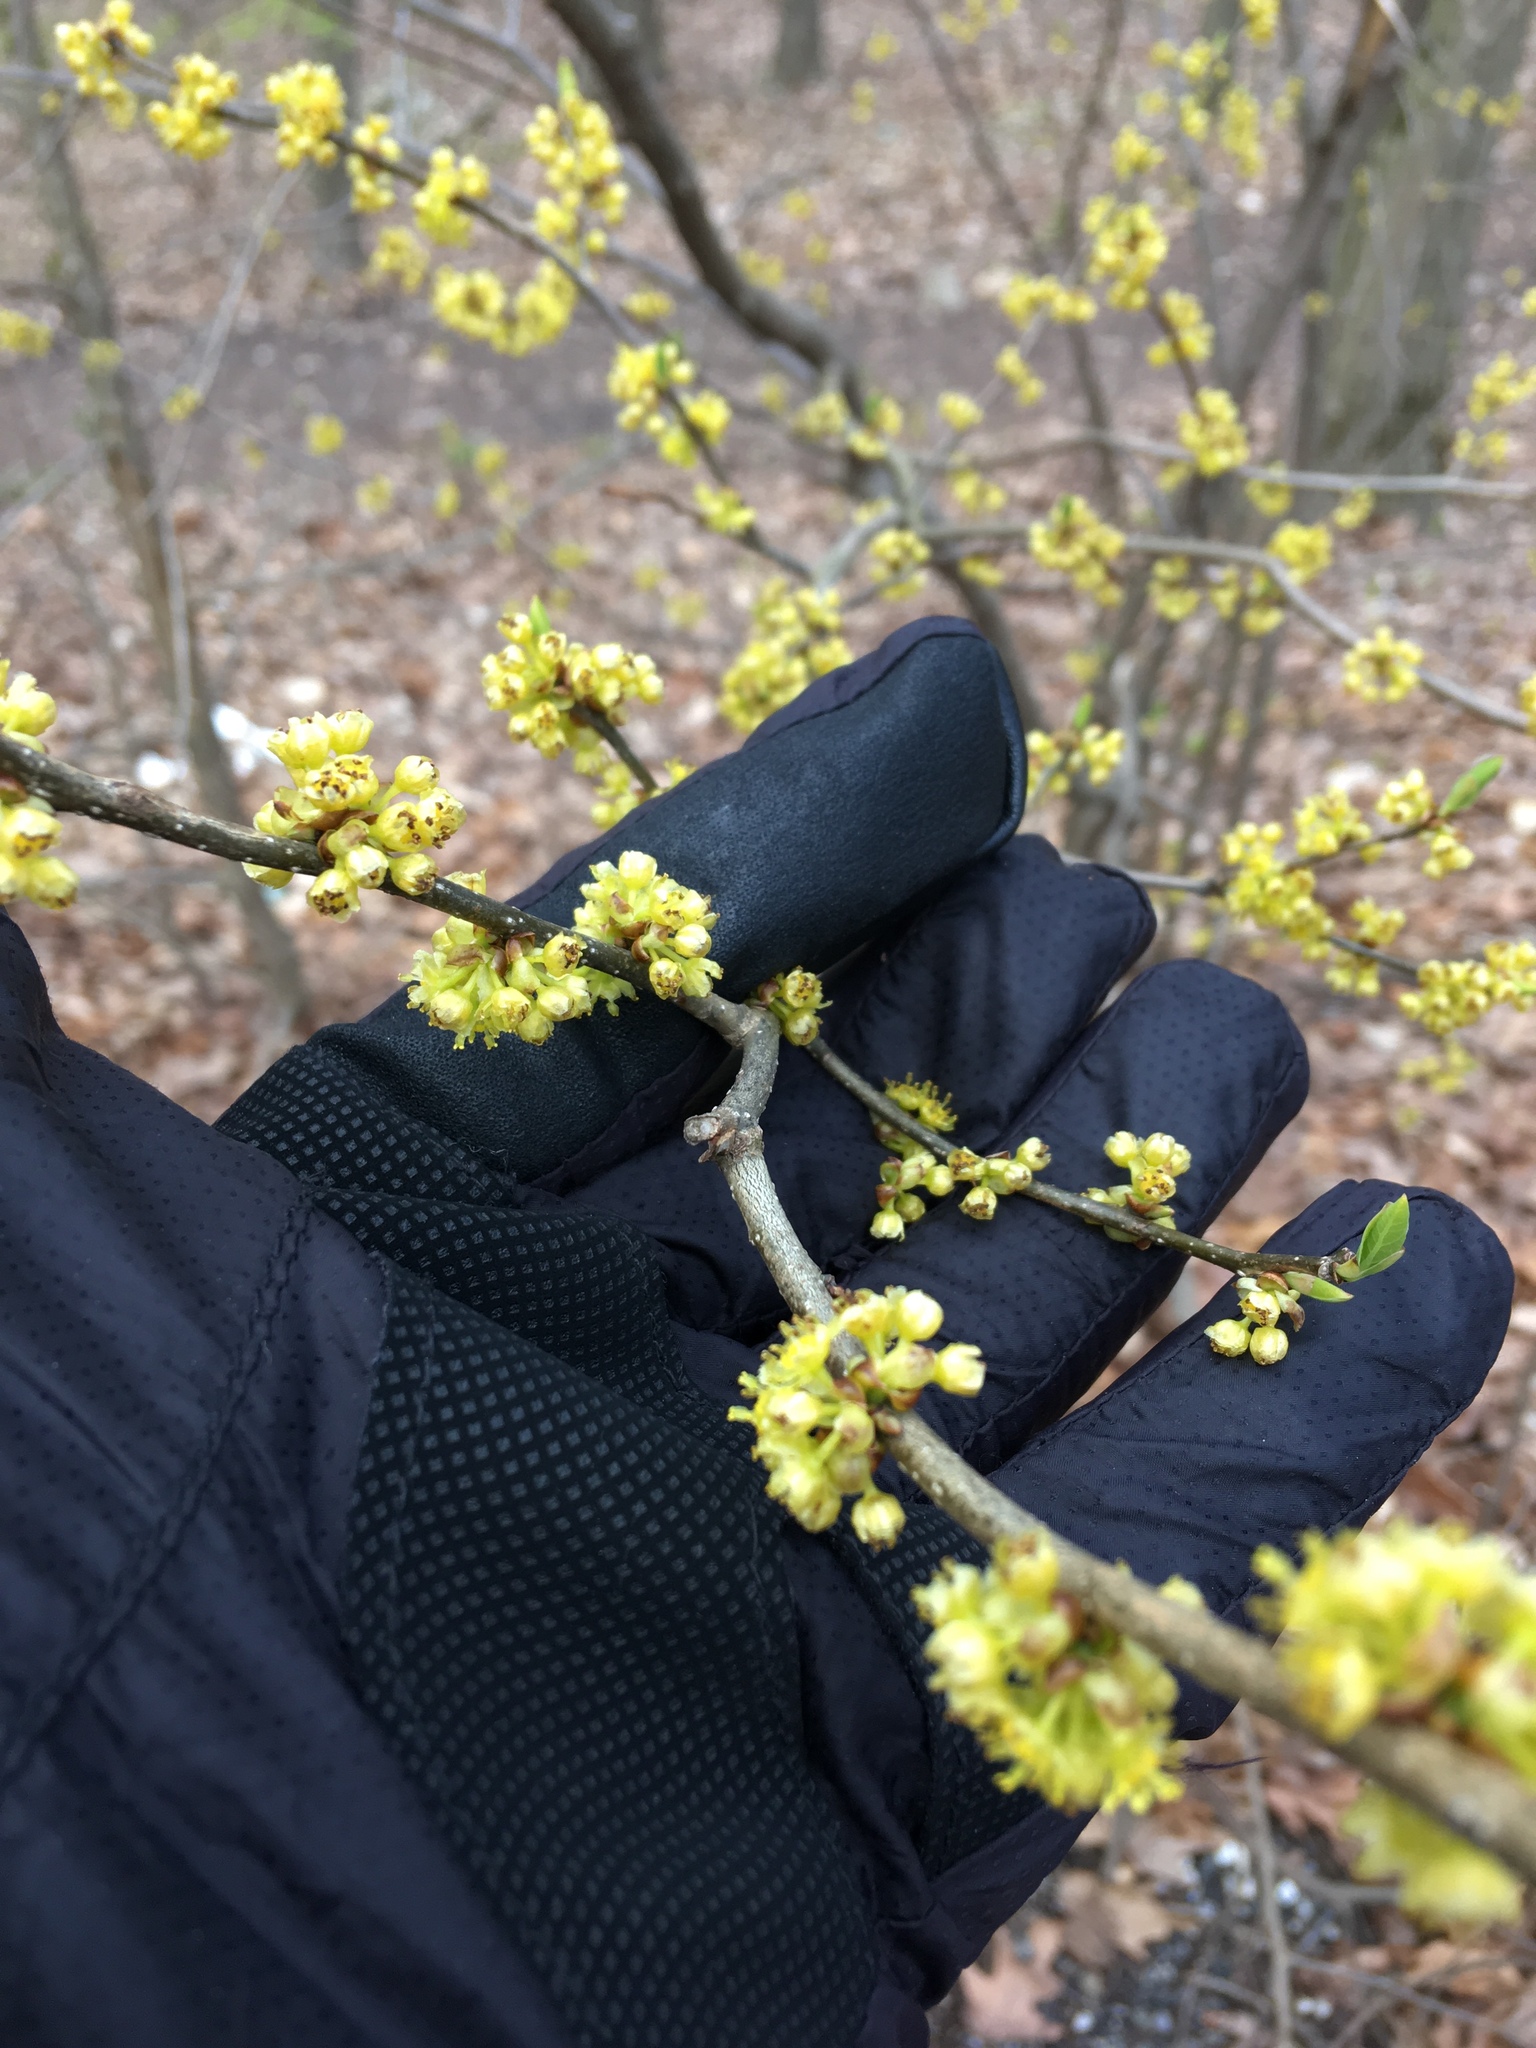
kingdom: Plantae
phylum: Tracheophyta
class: Magnoliopsida
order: Laurales
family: Lauraceae
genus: Lindera
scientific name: Lindera benzoin
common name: Spicebush
